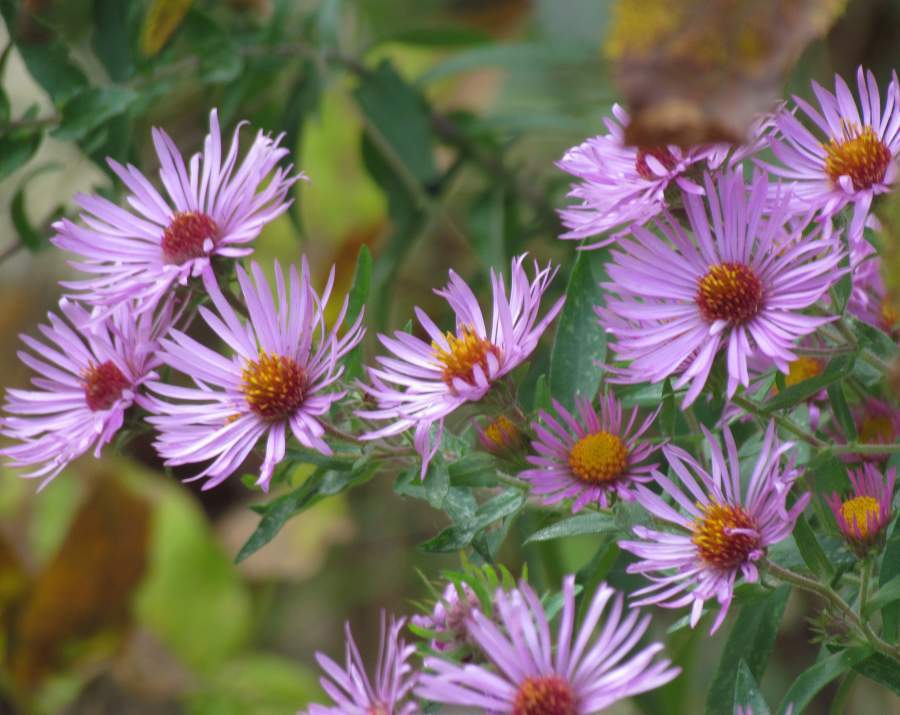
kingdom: Plantae
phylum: Tracheophyta
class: Magnoliopsida
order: Asterales
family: Asteraceae
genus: Symphyotrichum
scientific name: Symphyotrichum novae-angliae
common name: Michaelmas daisy
